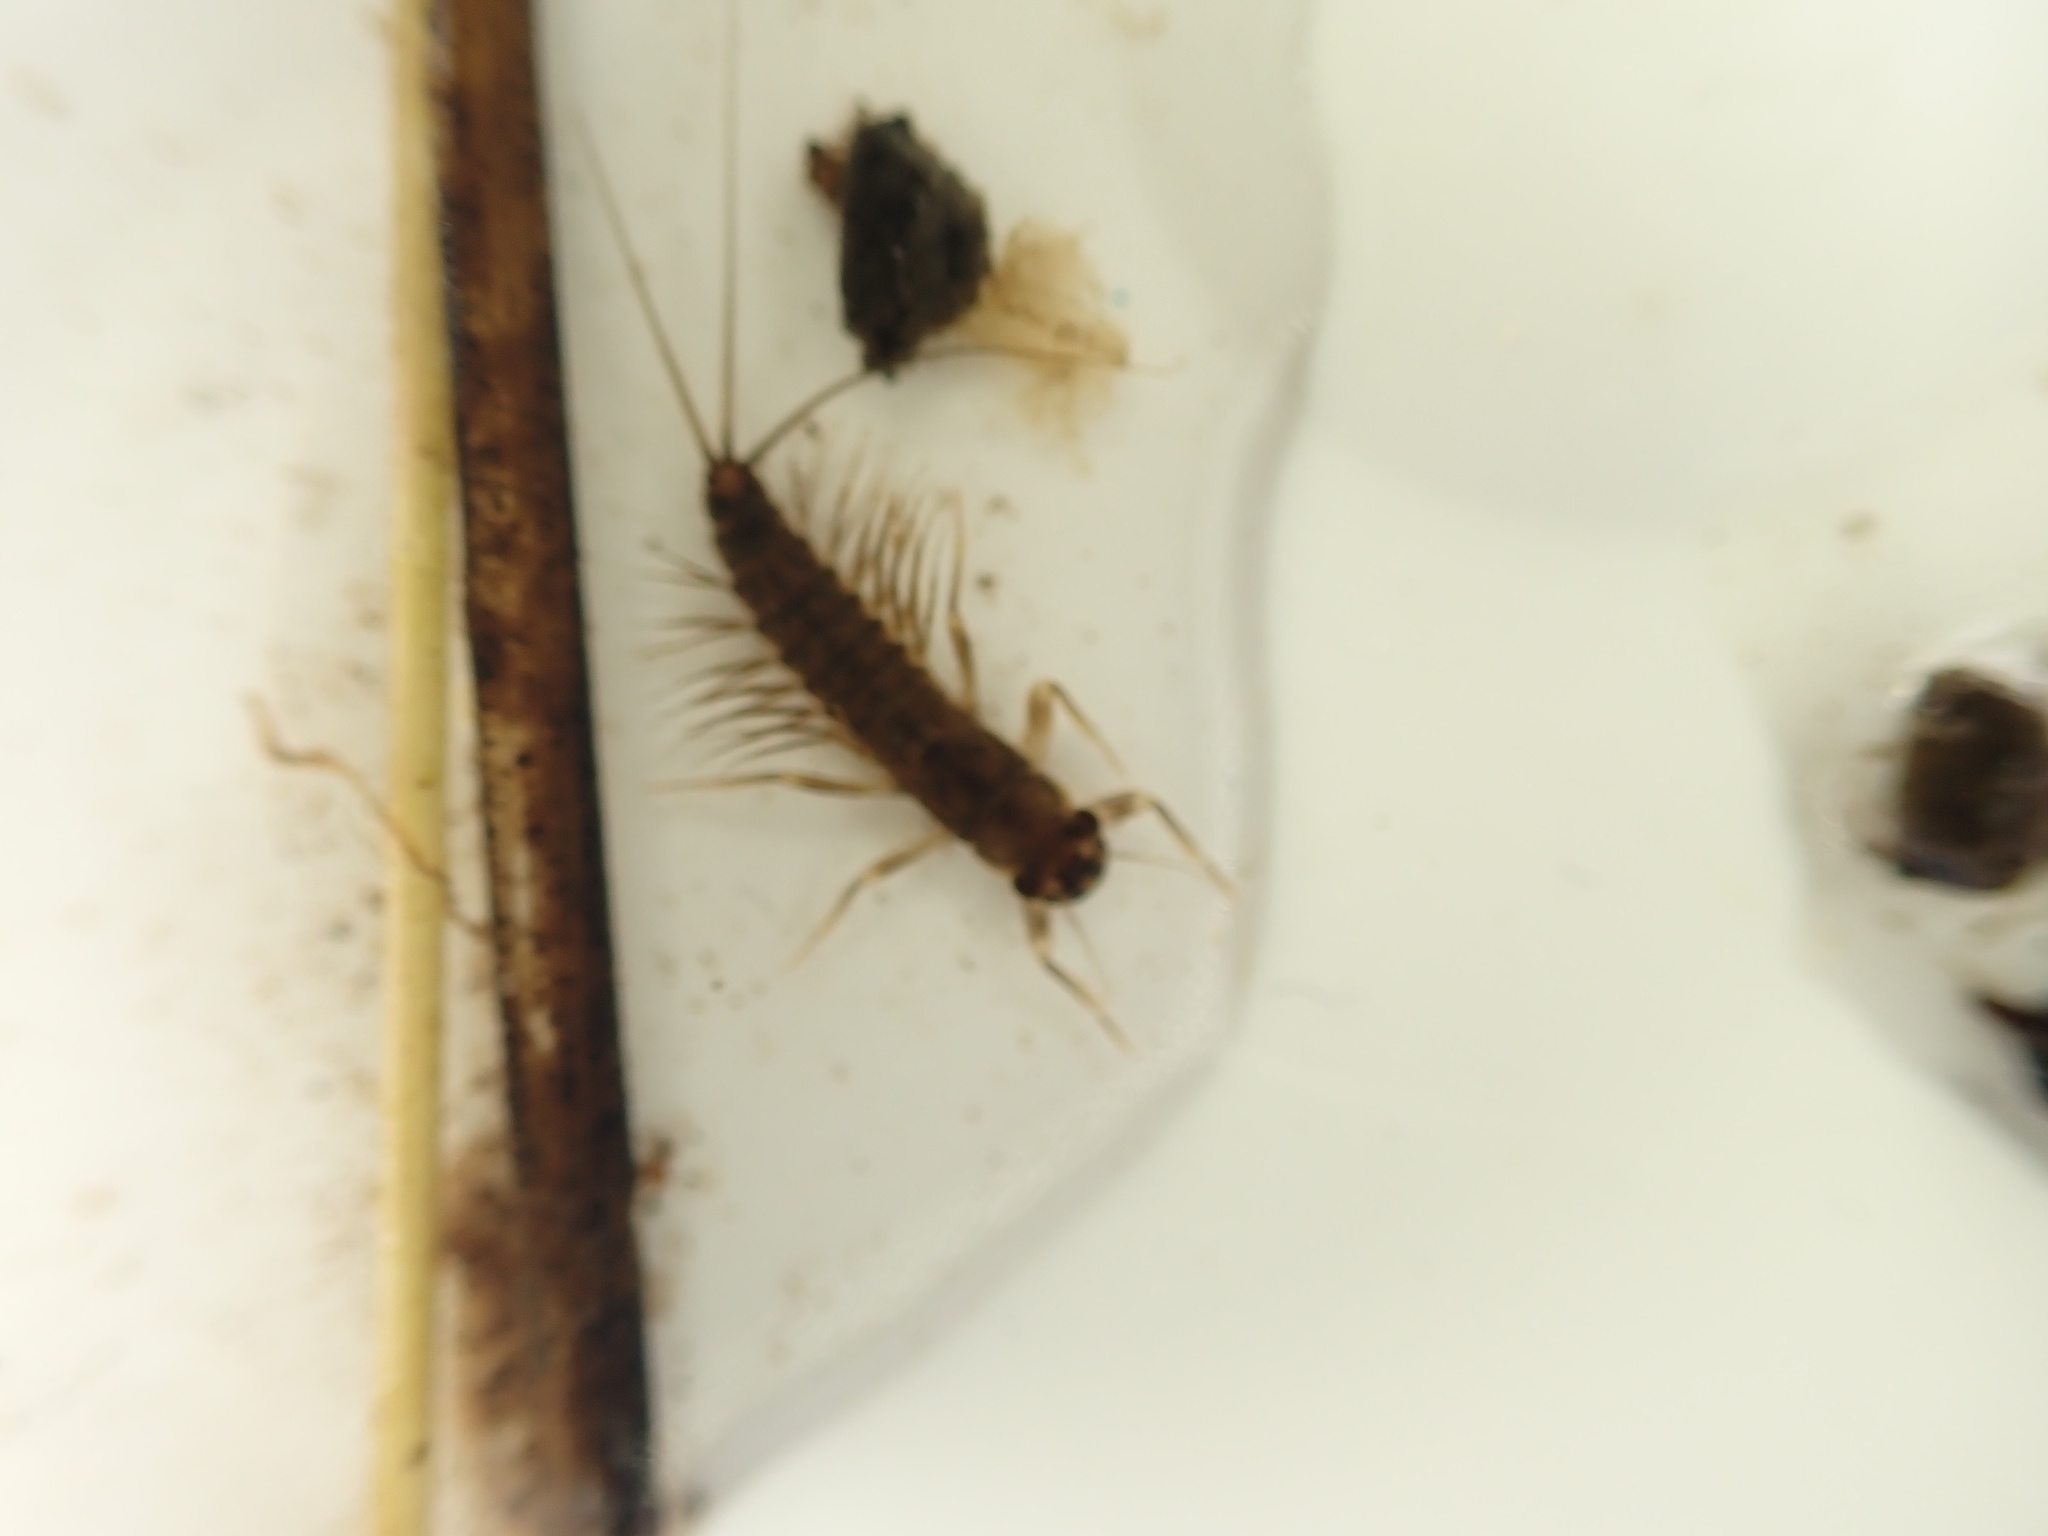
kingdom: Animalia
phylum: Arthropoda
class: Insecta
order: Ephemeroptera
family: Leptophlebiidae
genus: Paraleptophlebia
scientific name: Paraleptophlebia submarginata
